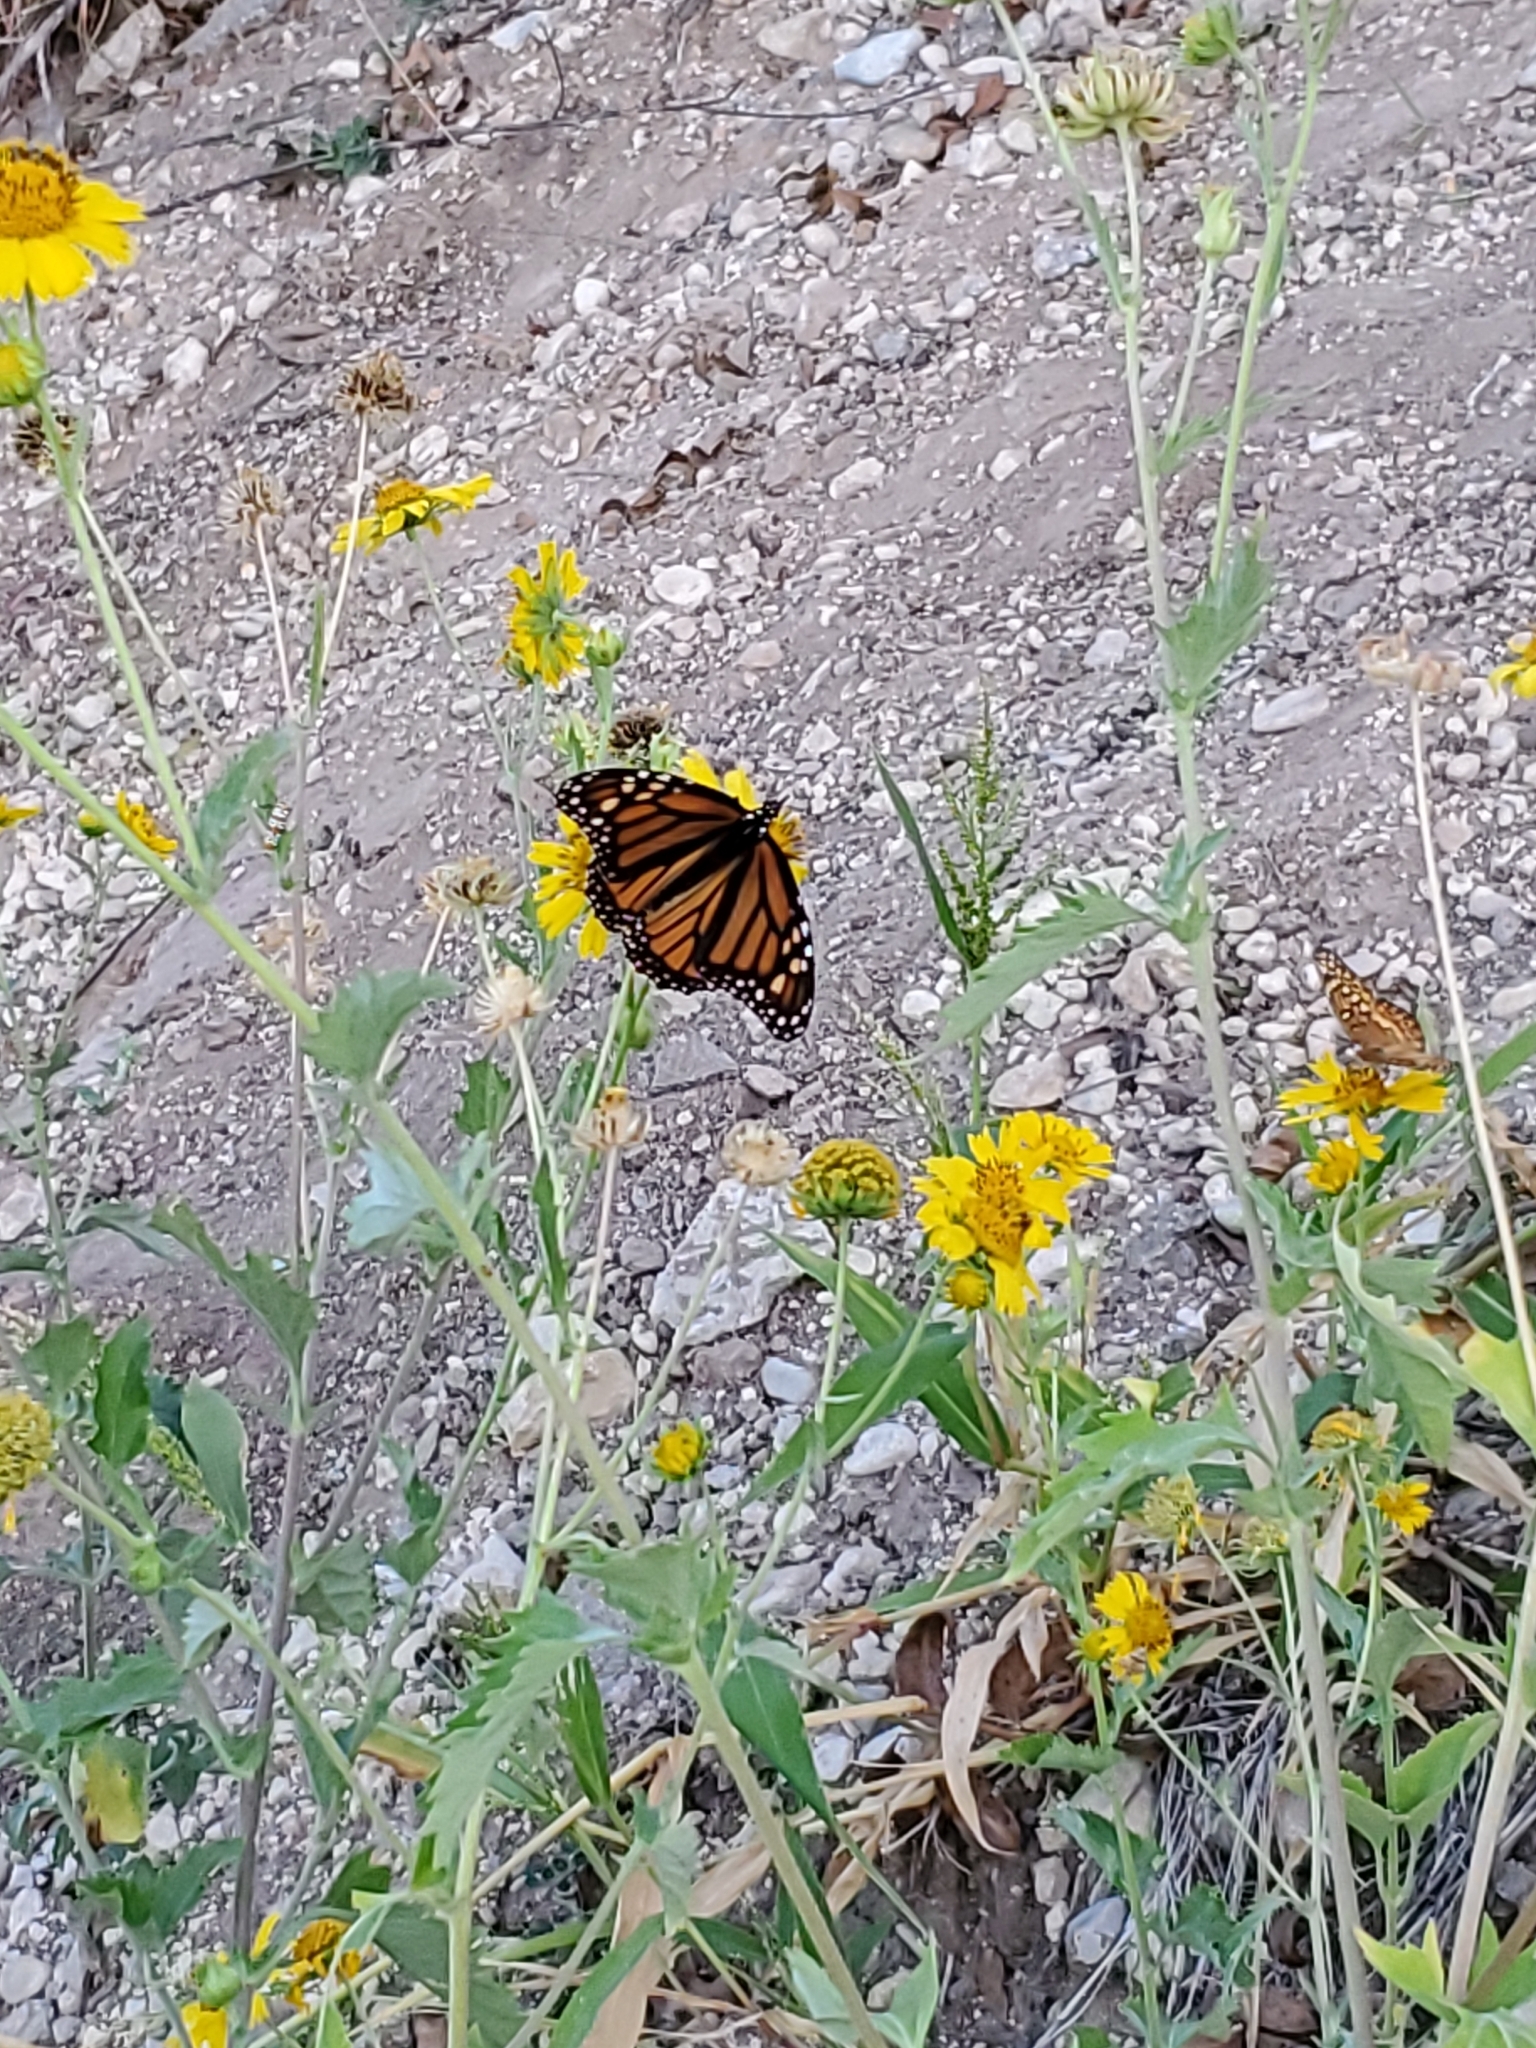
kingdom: Animalia
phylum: Arthropoda
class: Insecta
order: Lepidoptera
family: Nymphalidae
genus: Danaus
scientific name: Danaus plexippus
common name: Monarch
